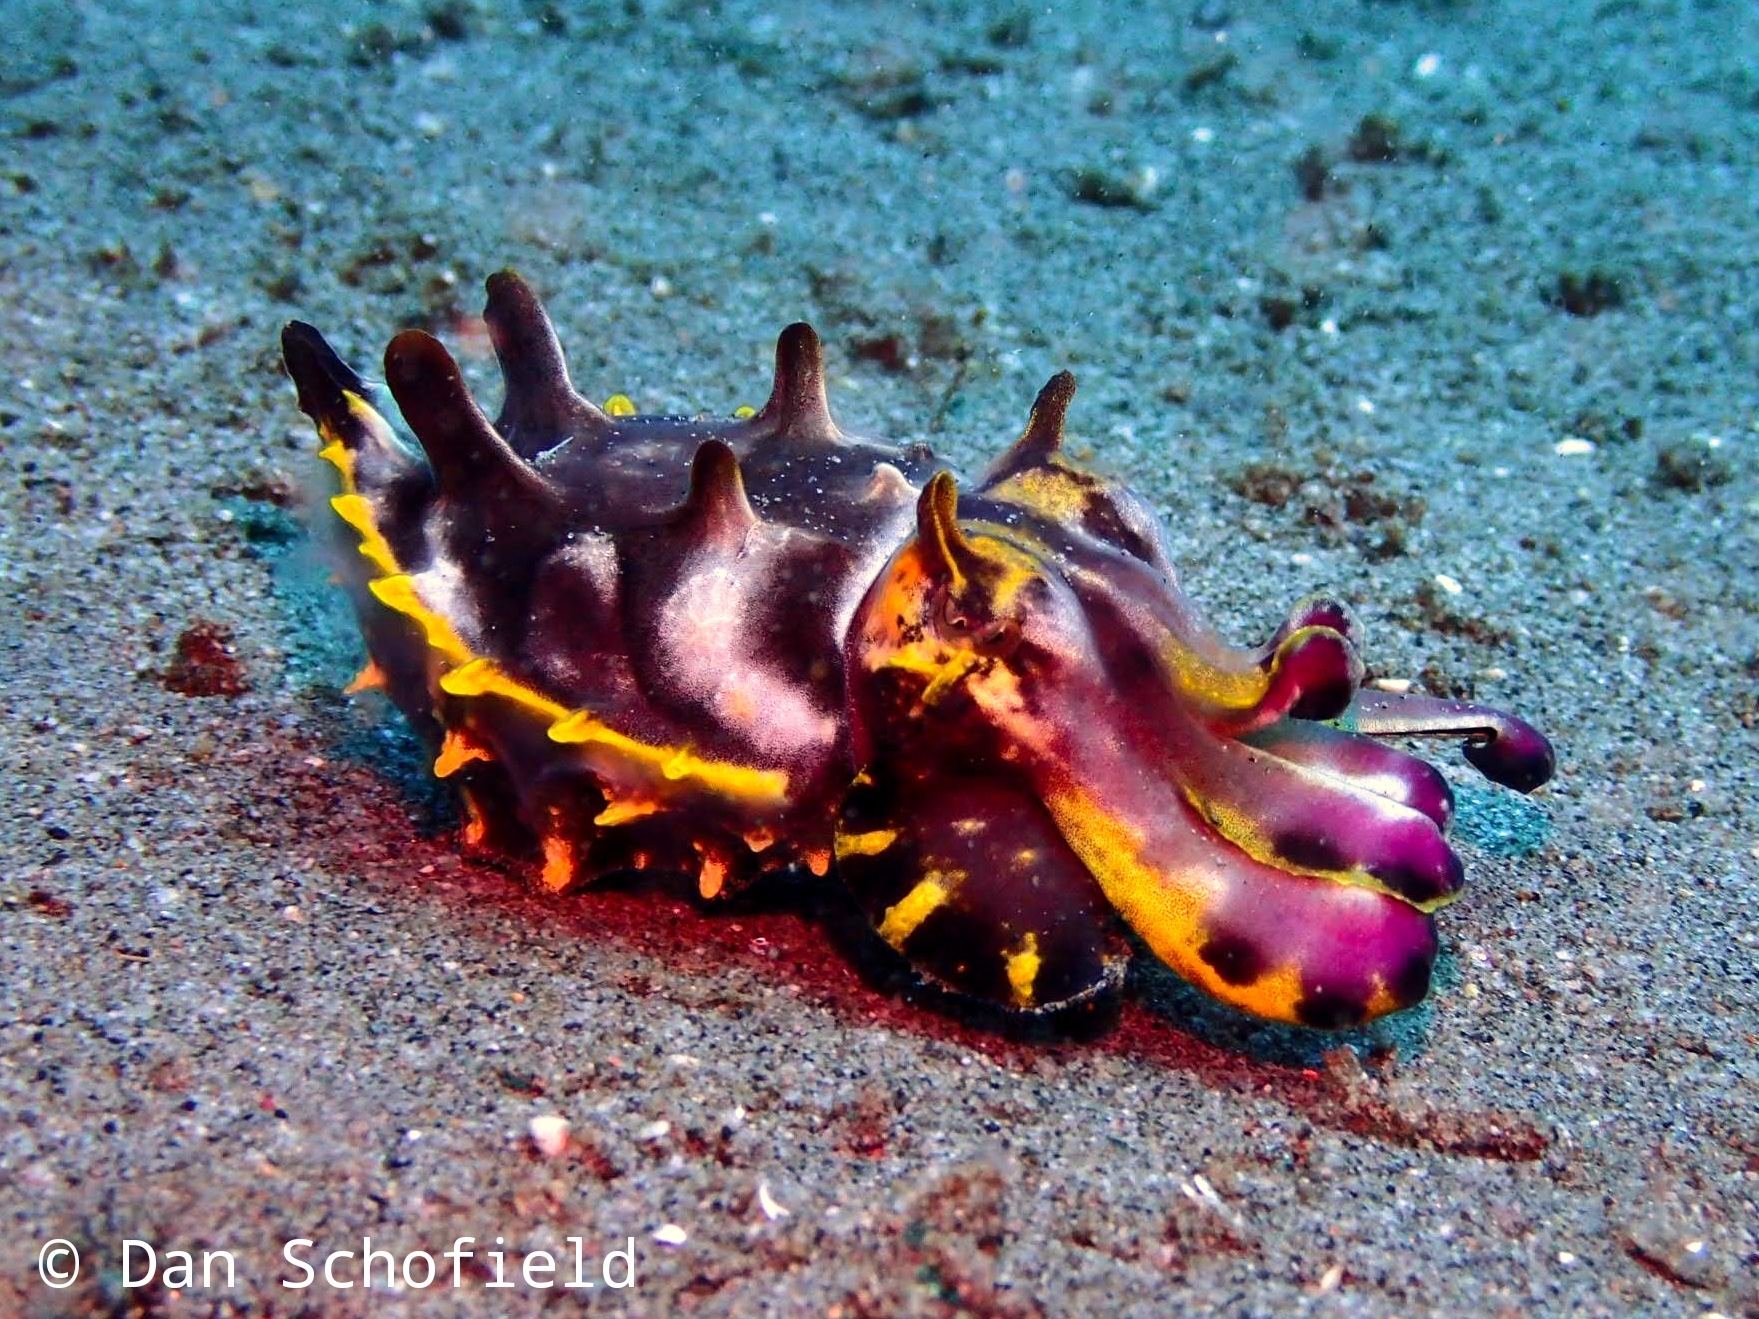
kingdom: Animalia
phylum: Mollusca
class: Cephalopoda
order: Sepiida
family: Sepiidae
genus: Ascarosepion
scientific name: Ascarosepion pfefferi
